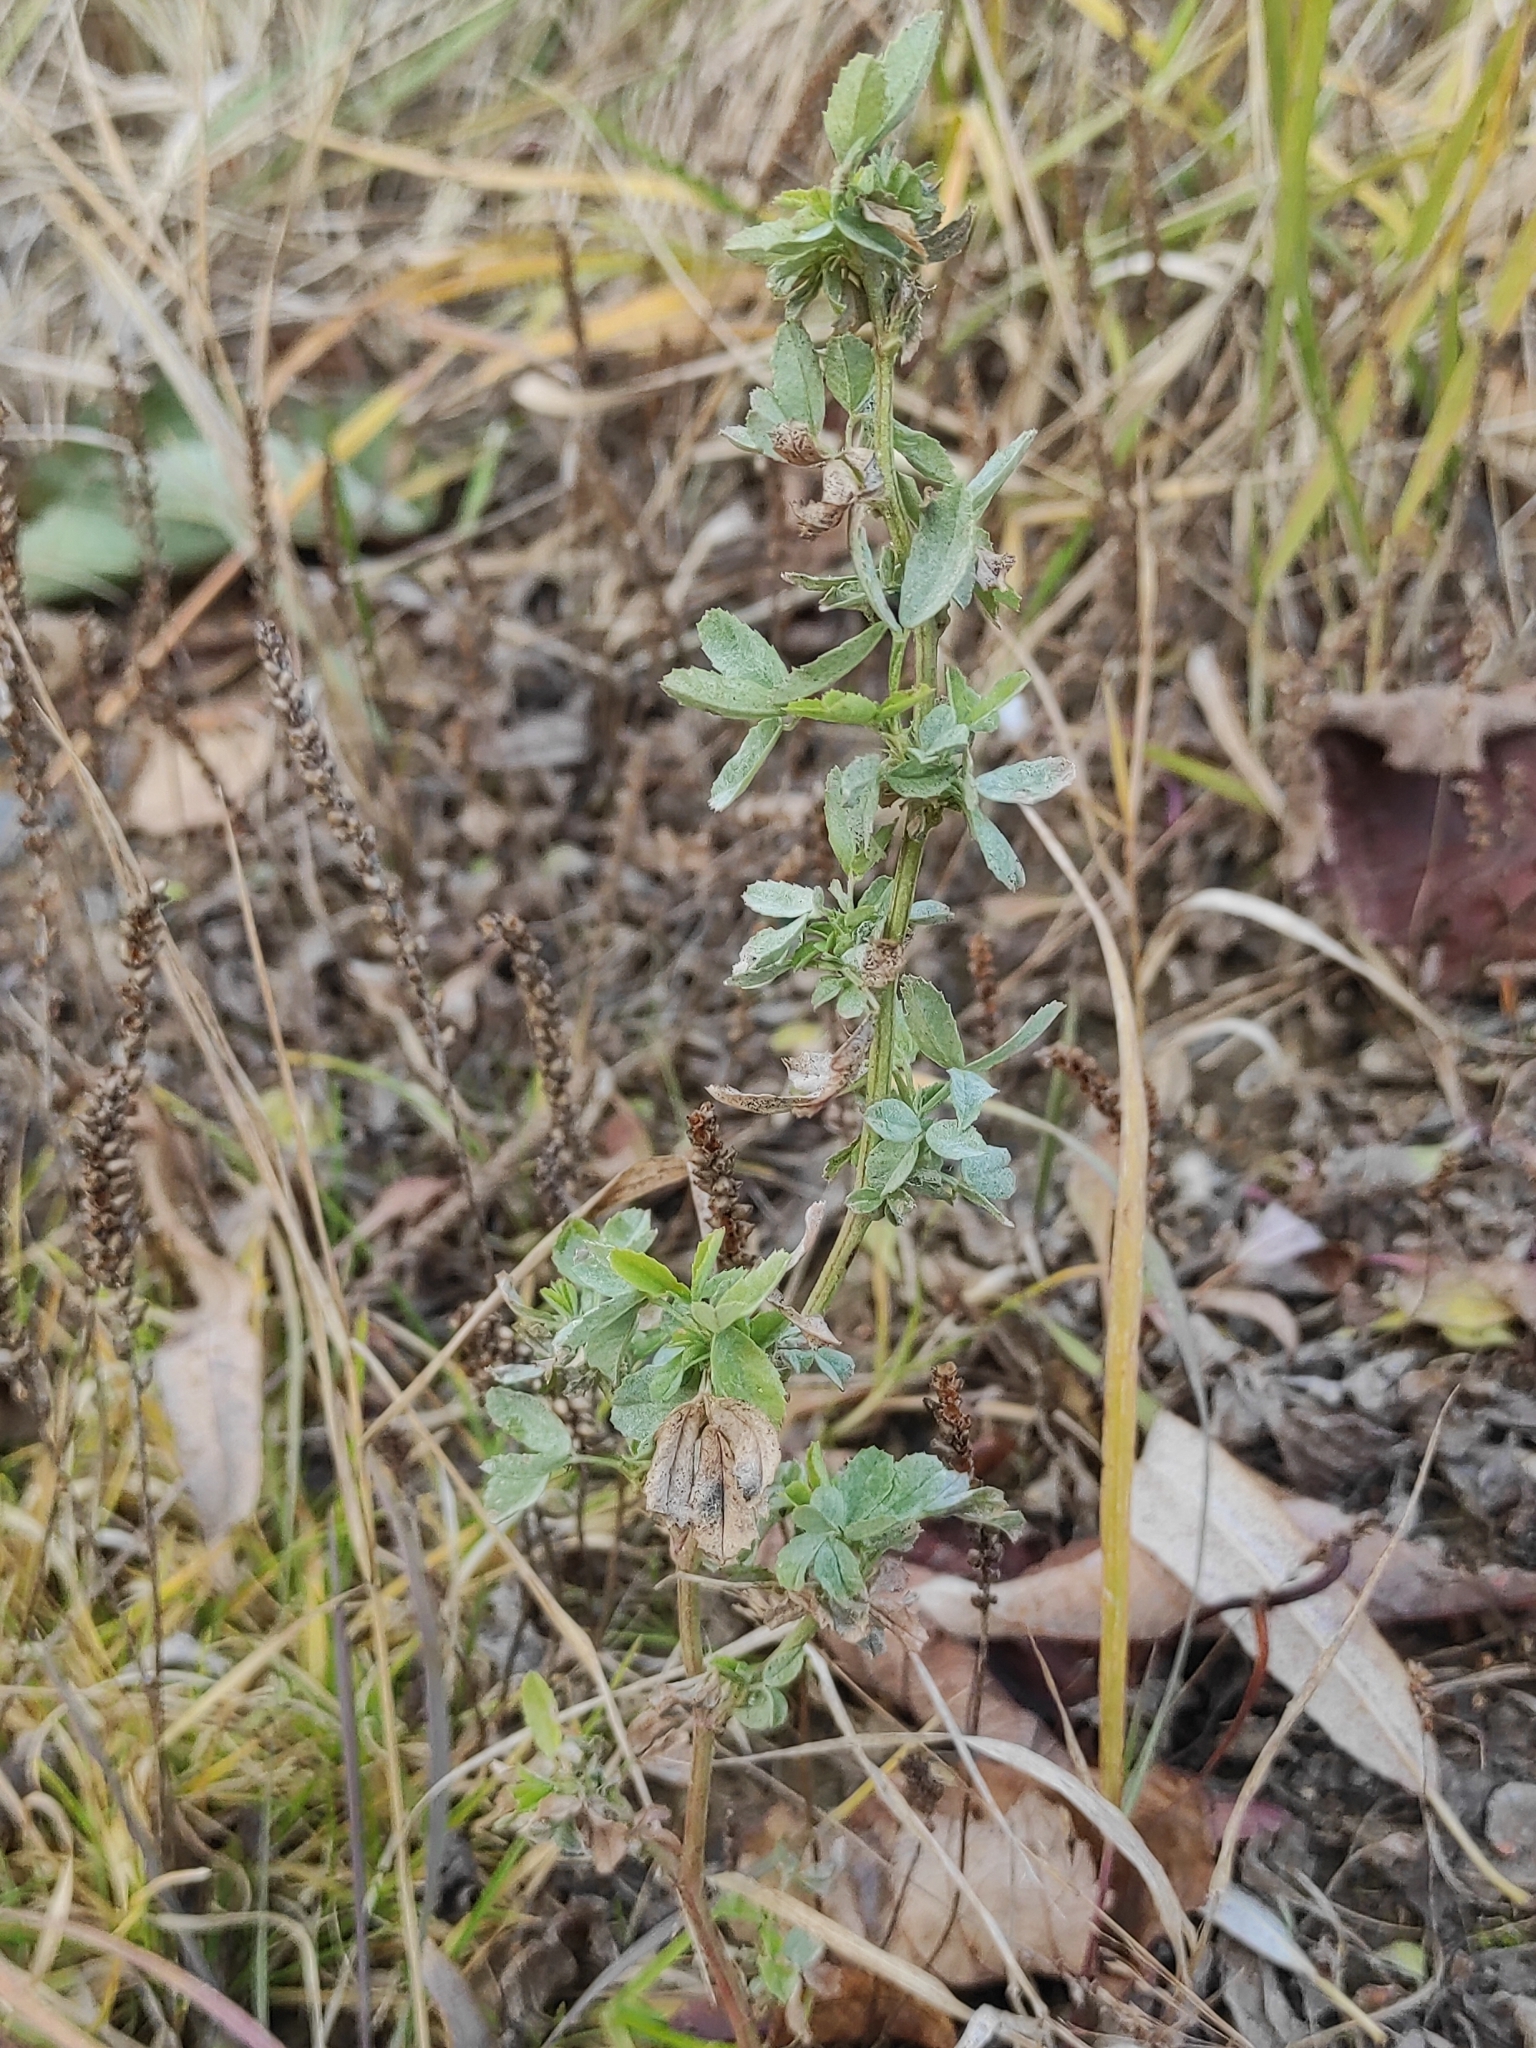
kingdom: Plantae
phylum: Tracheophyta
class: Magnoliopsida
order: Fabales
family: Fabaceae
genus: Melilotus
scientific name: Melilotus
